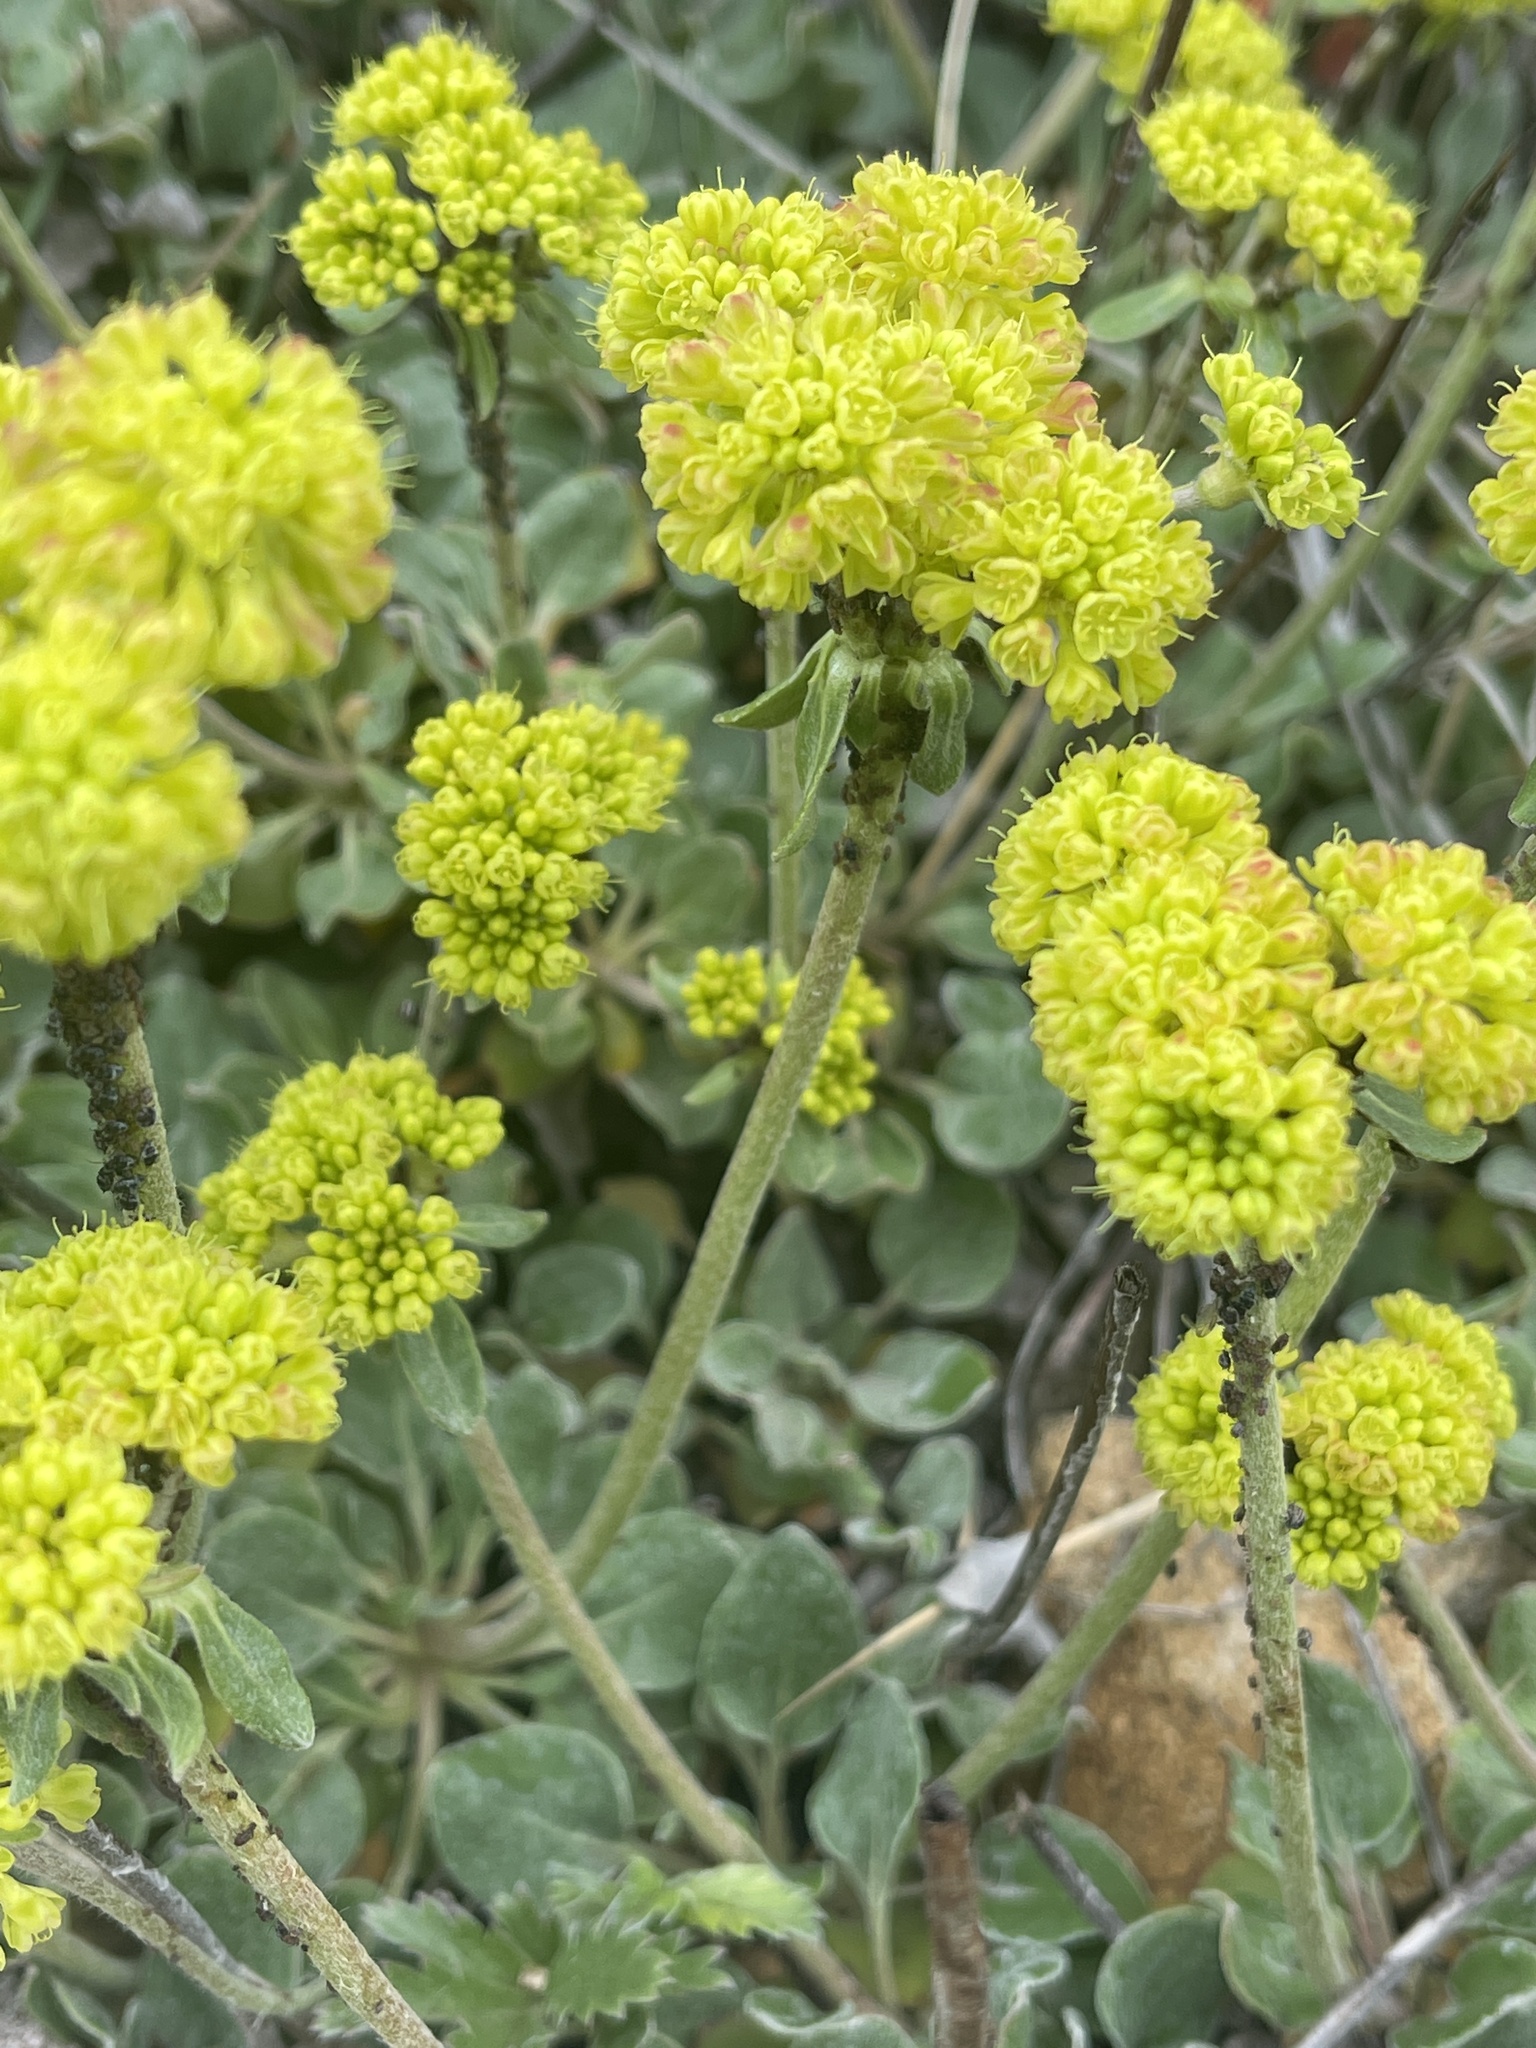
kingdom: Plantae
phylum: Tracheophyta
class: Magnoliopsida
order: Caryophyllales
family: Polygonaceae
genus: Eriogonum
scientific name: Eriogonum umbellatum
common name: Sulfur-buckwheat
